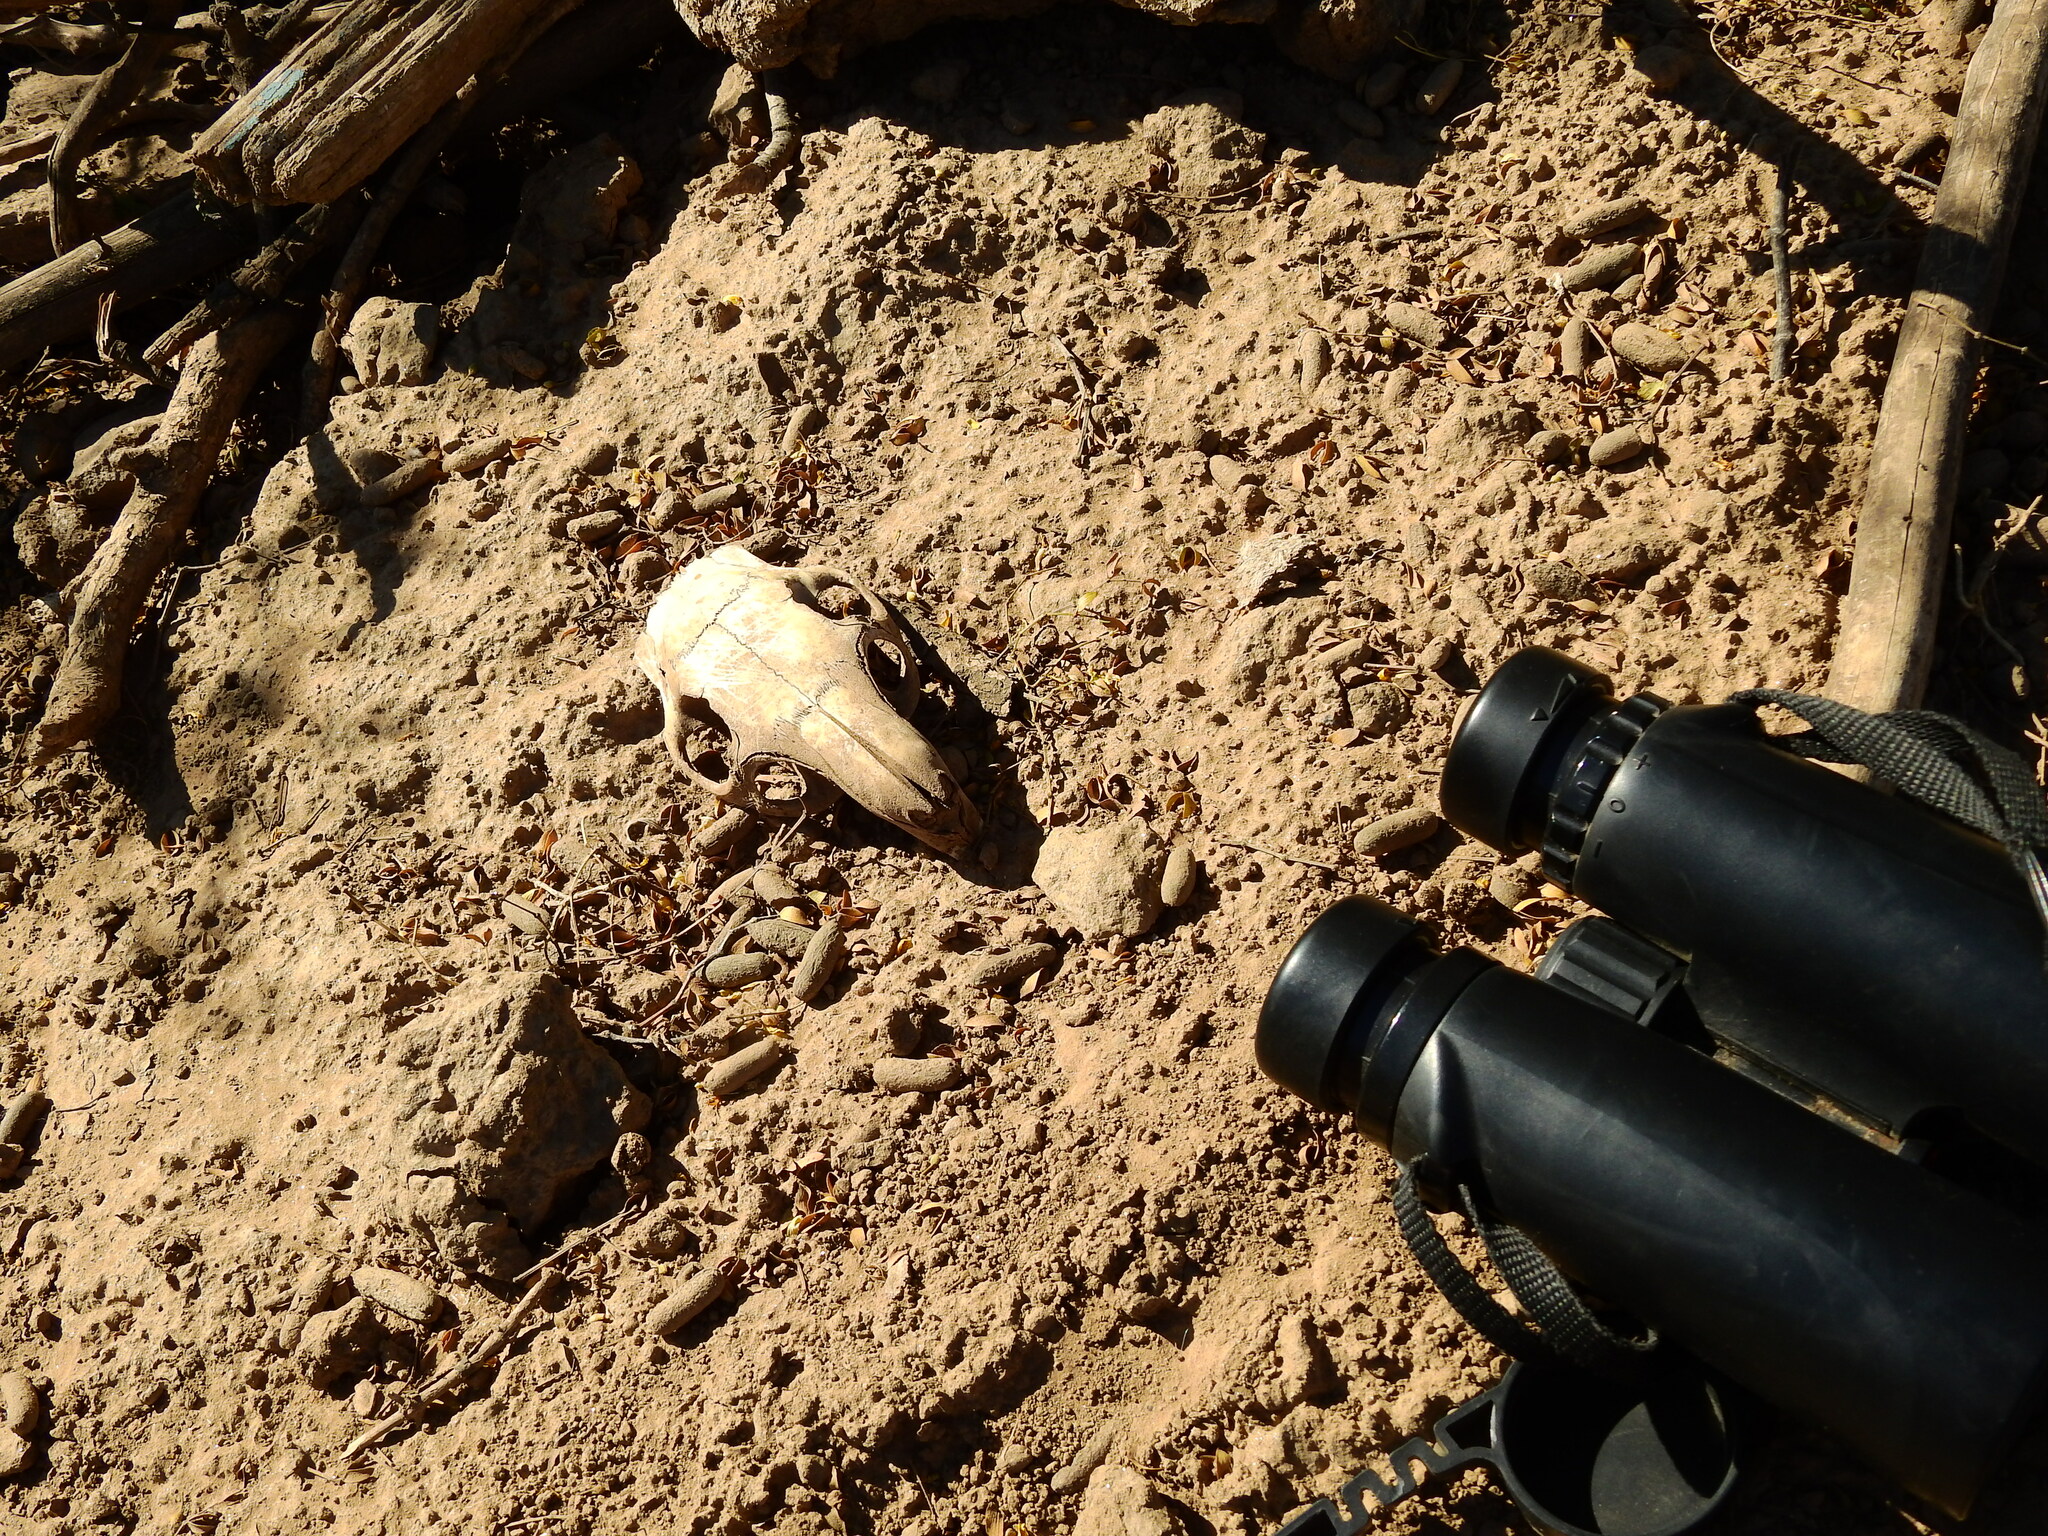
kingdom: Animalia
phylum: Chordata
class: Mammalia
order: Rodentia
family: Chinchillidae
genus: Lagostomus
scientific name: Lagostomus maximus
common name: Plains viscacha
